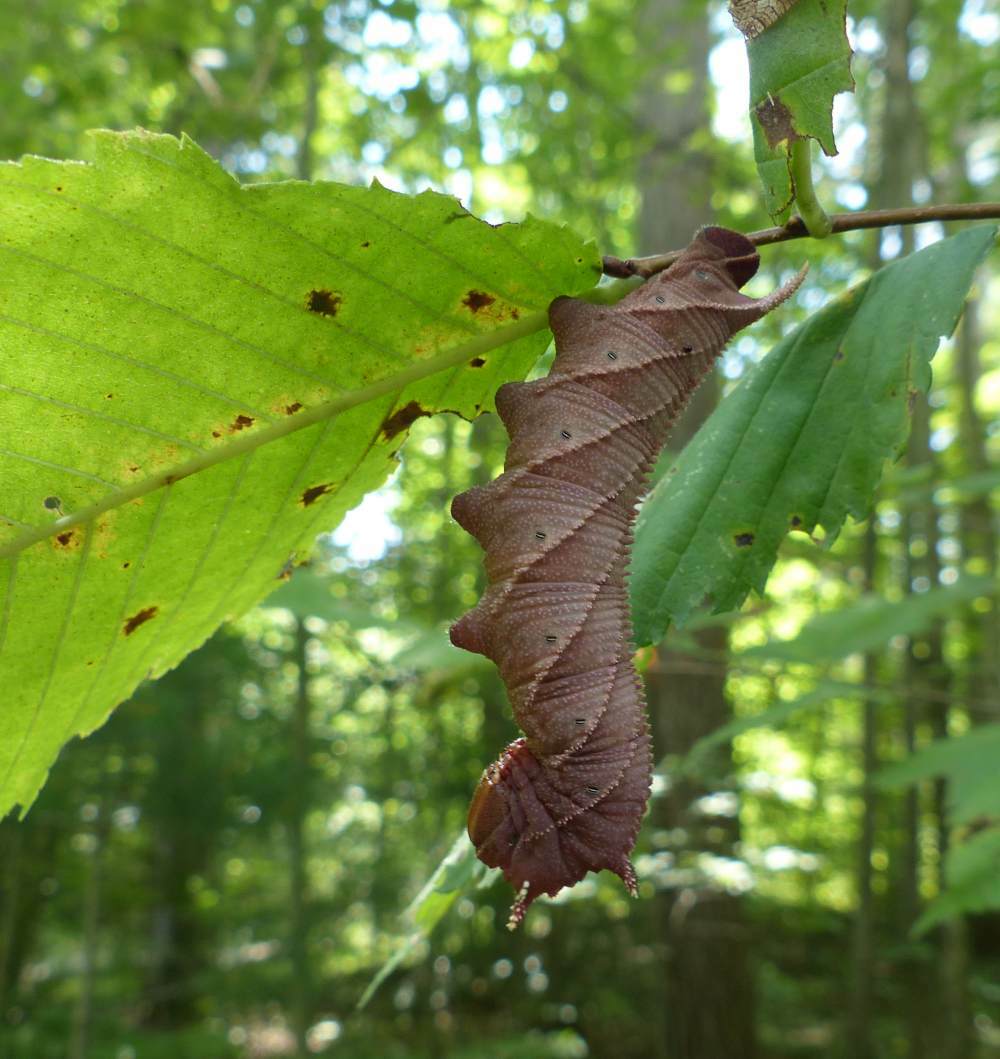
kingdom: Animalia
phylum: Arthropoda
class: Insecta
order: Lepidoptera
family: Sphingidae
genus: Ceratomia
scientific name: Ceratomia amyntor
